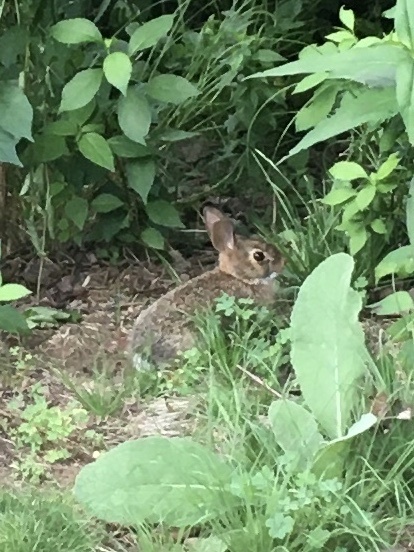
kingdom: Animalia
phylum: Chordata
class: Mammalia
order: Lagomorpha
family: Leporidae
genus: Sylvilagus
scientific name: Sylvilagus floridanus
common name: Eastern cottontail
